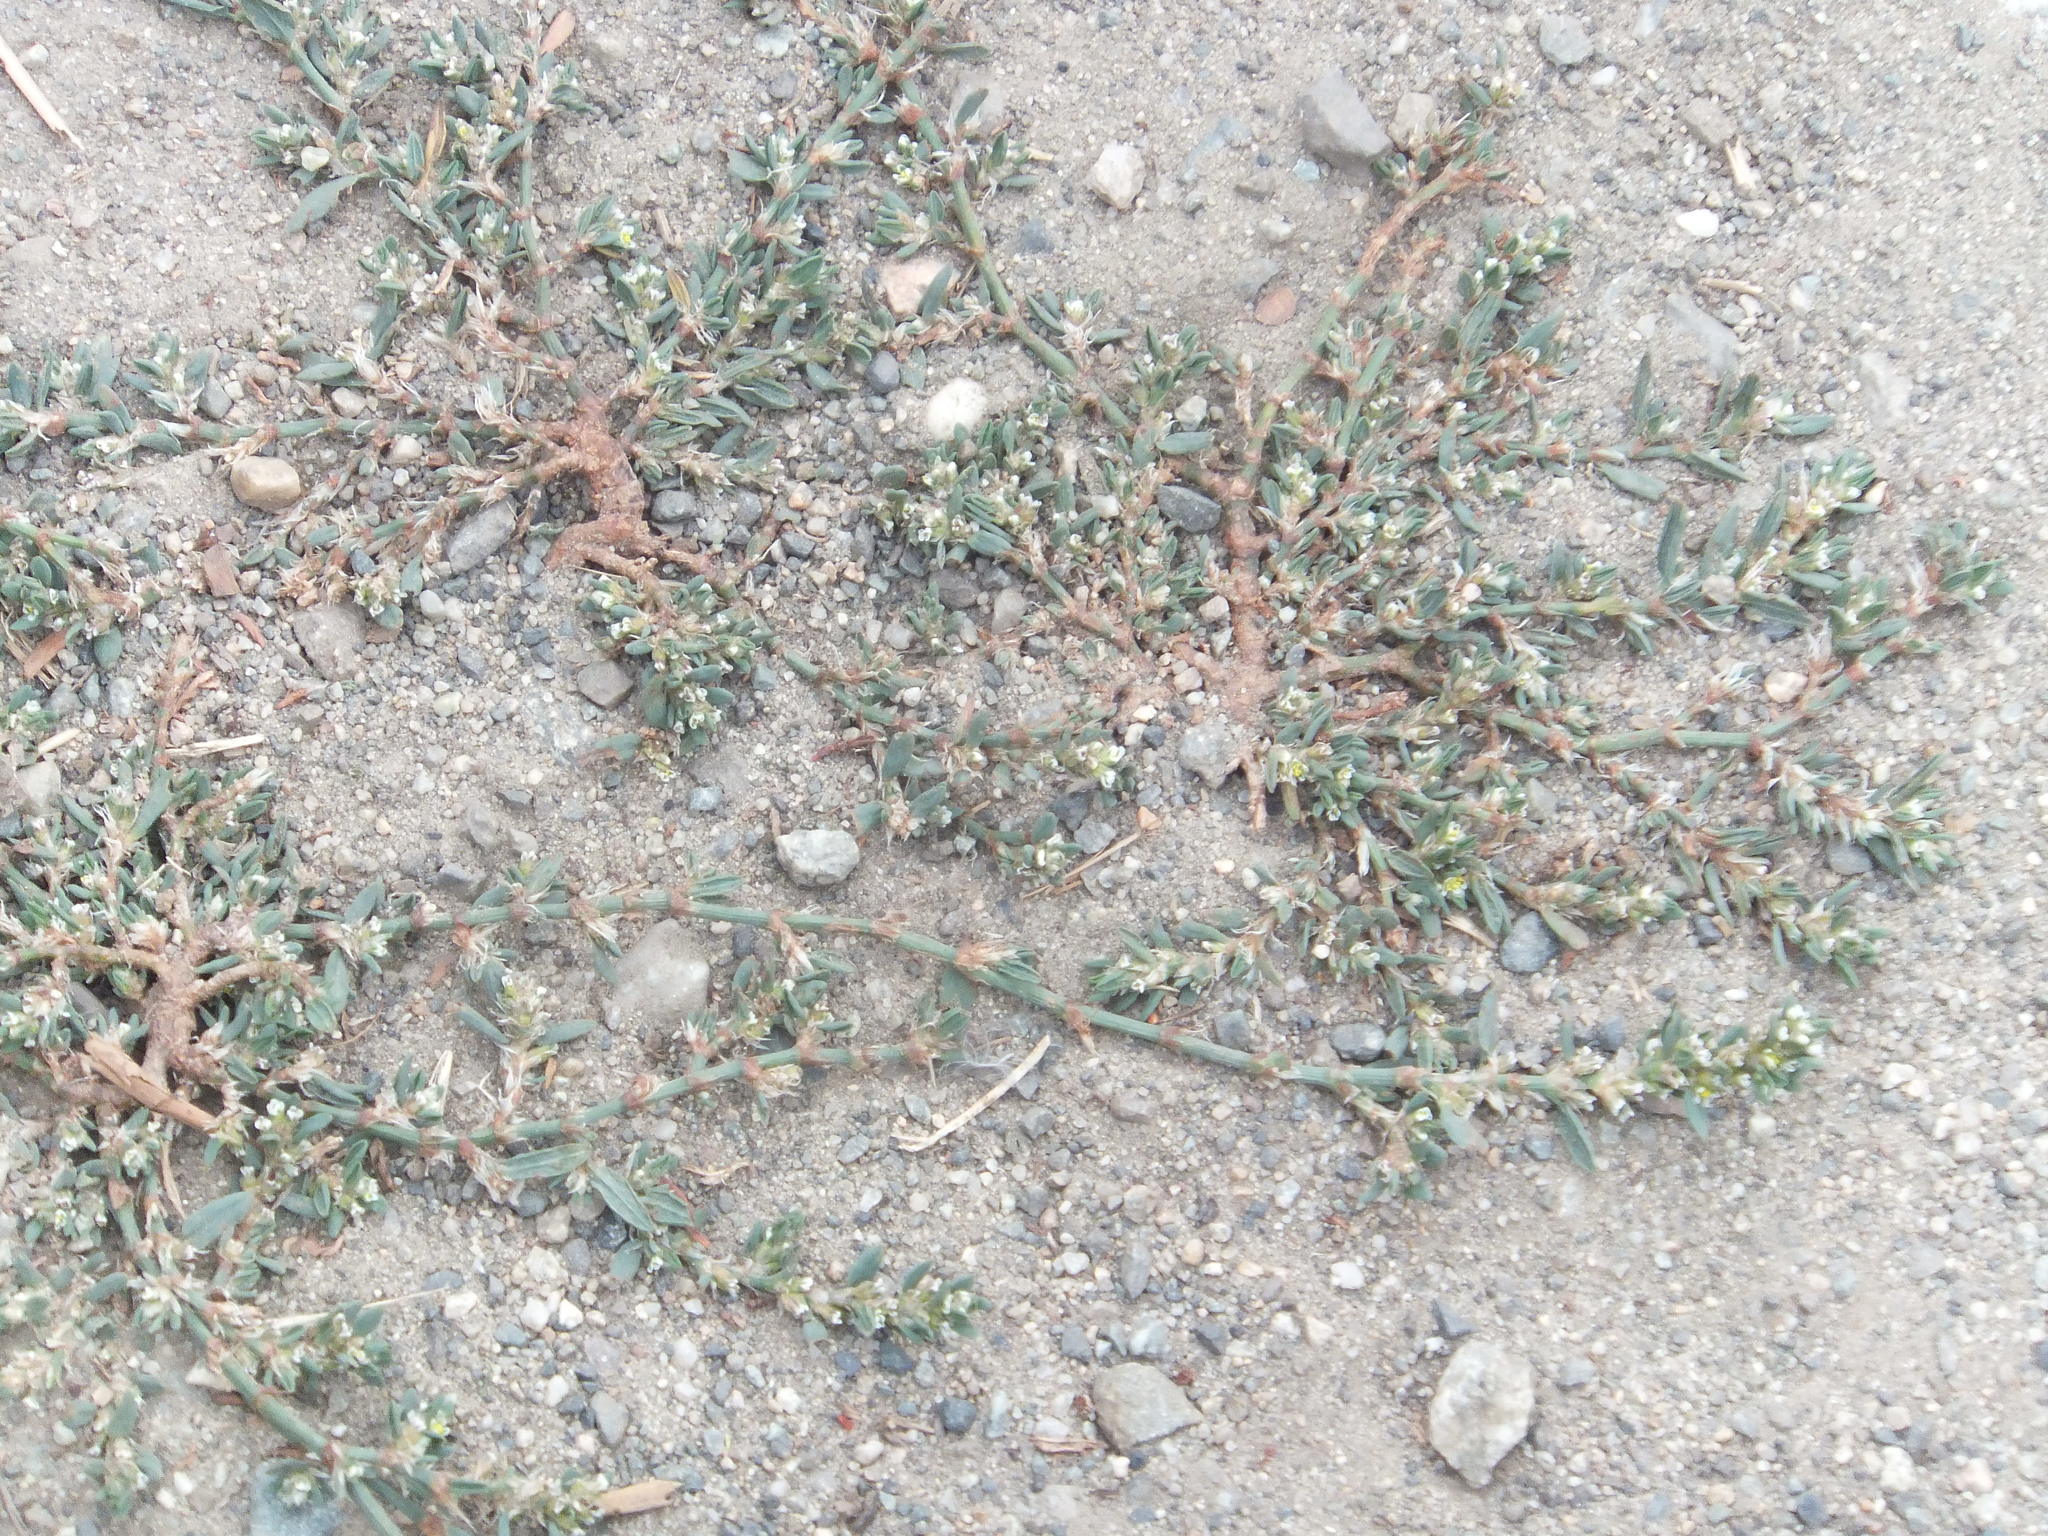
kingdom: Plantae
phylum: Tracheophyta
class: Magnoliopsida
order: Caryophyllales
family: Polygonaceae
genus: Polygonum
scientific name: Polygonum aviculare
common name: Prostrate knotweed
